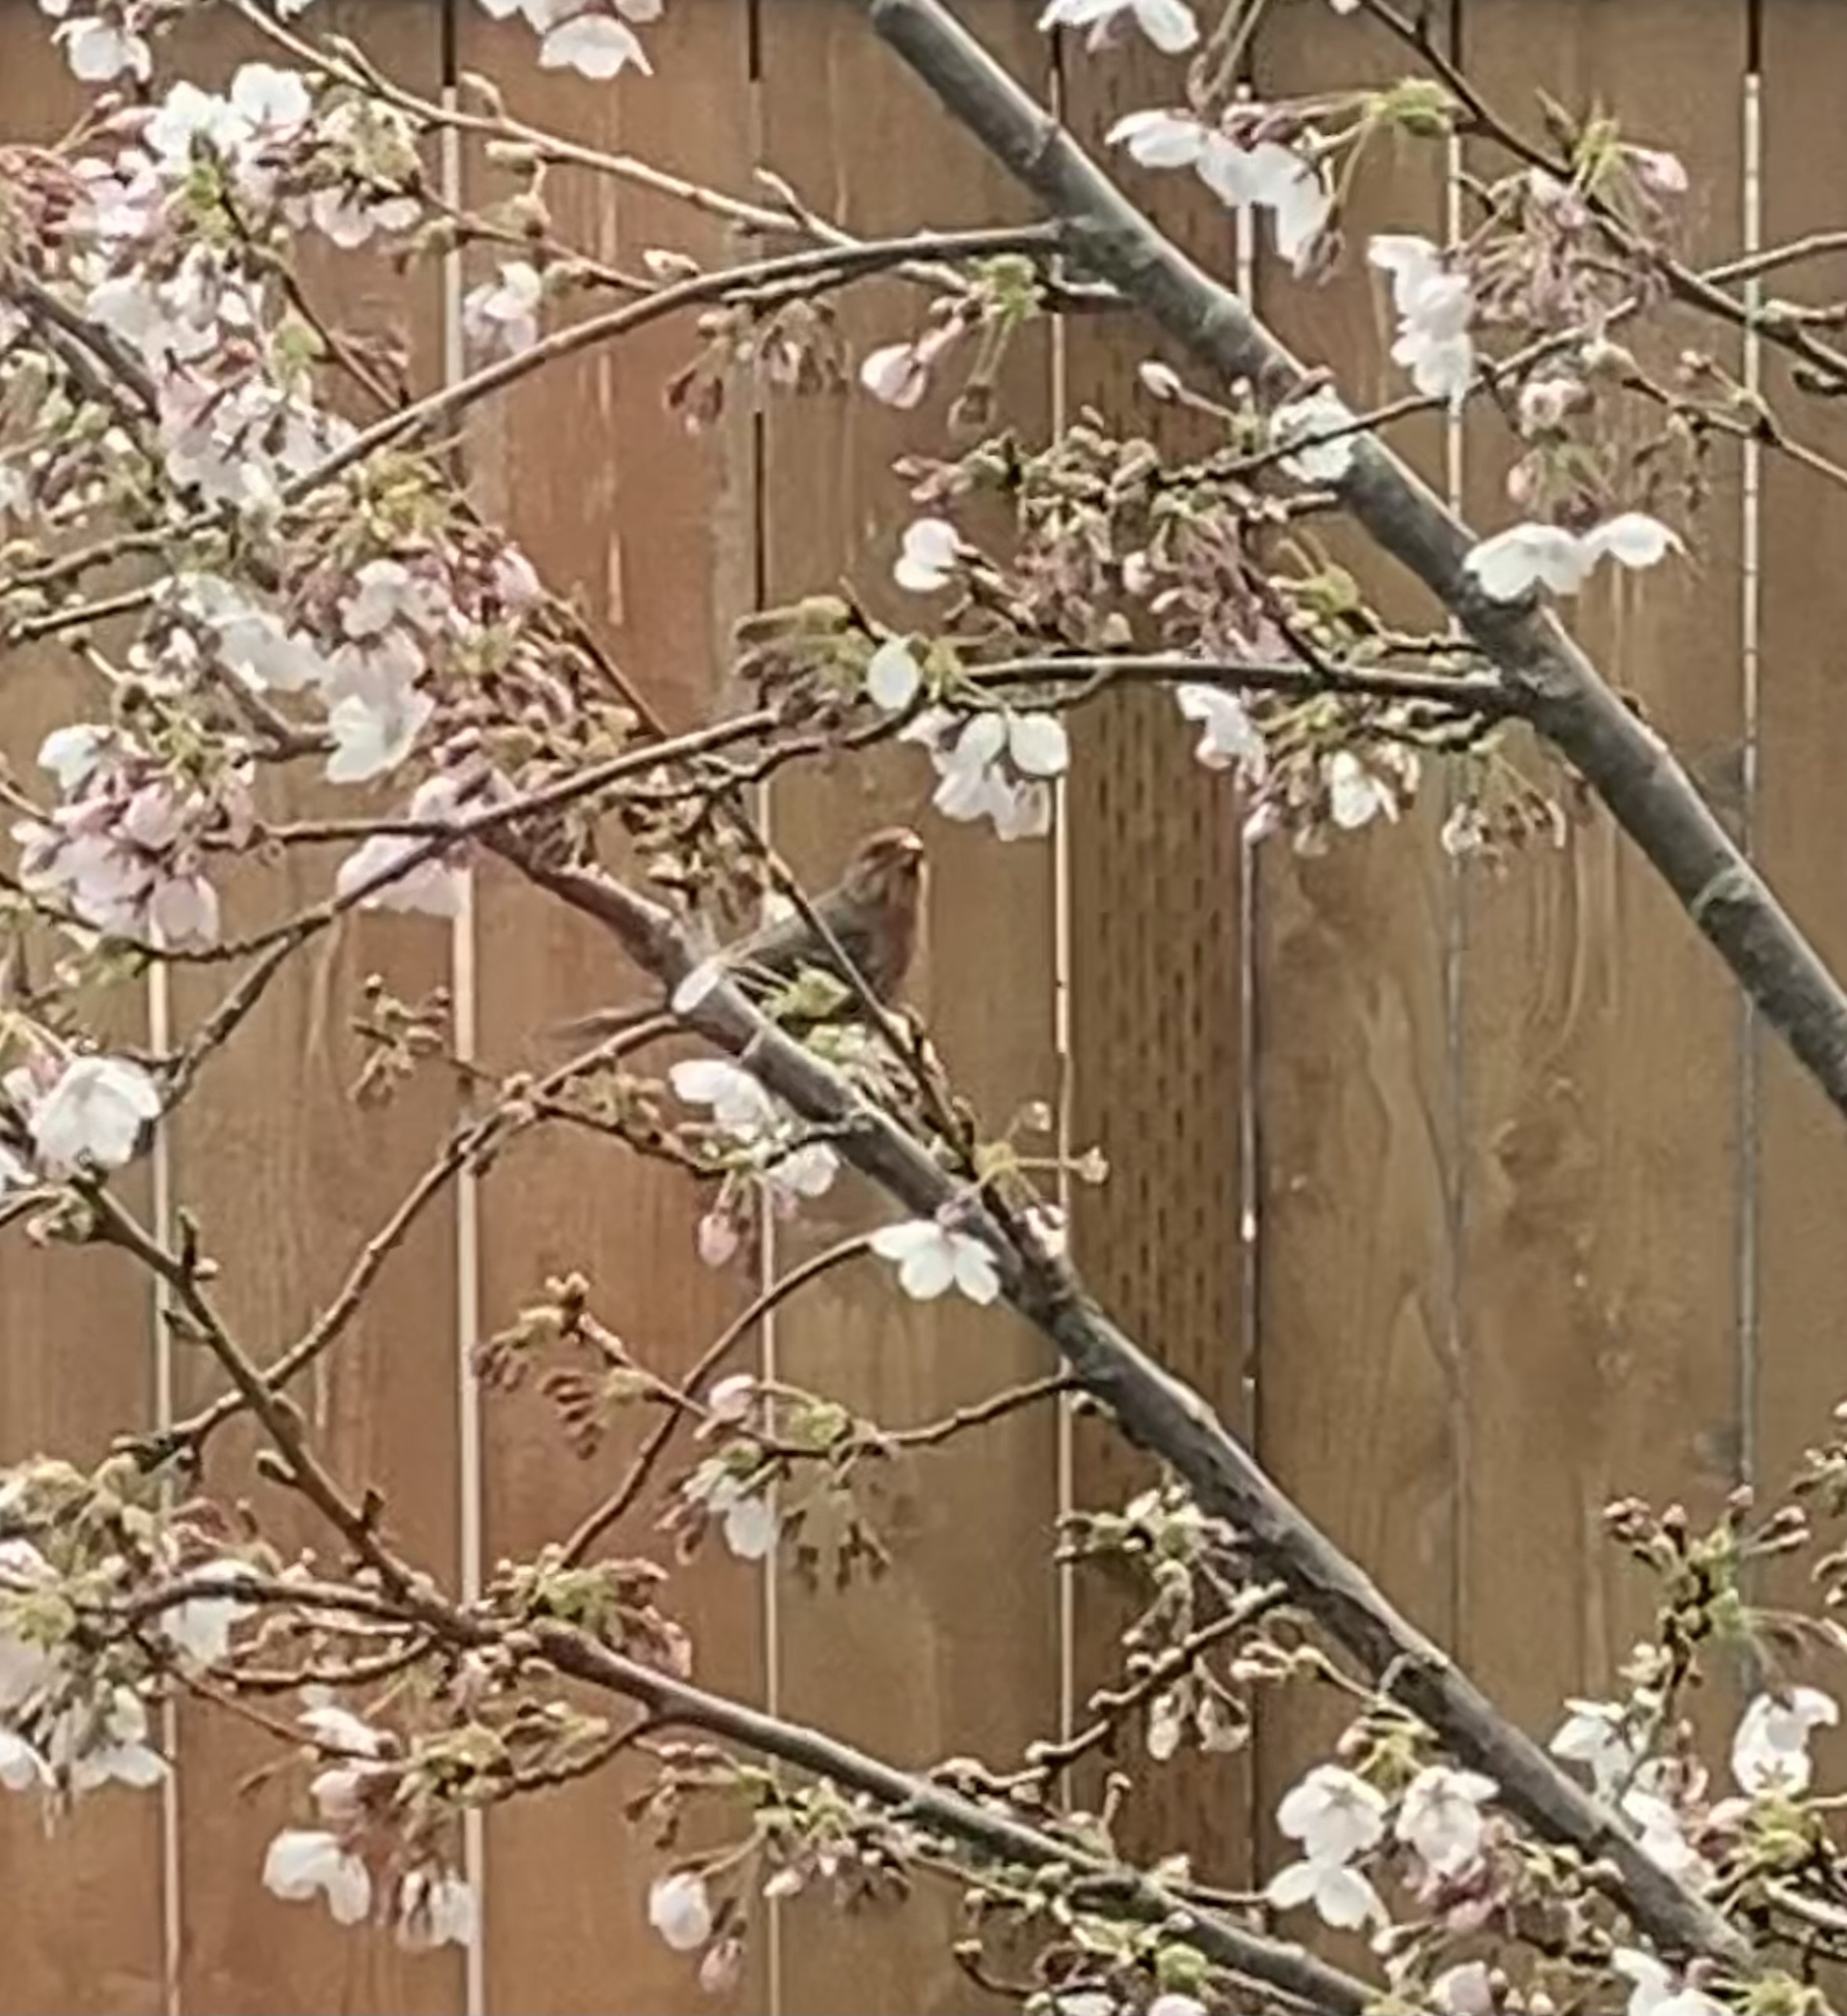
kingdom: Animalia
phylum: Chordata
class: Aves
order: Passeriformes
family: Fringillidae
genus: Haemorhous
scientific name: Haemorhous mexicanus
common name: House finch
